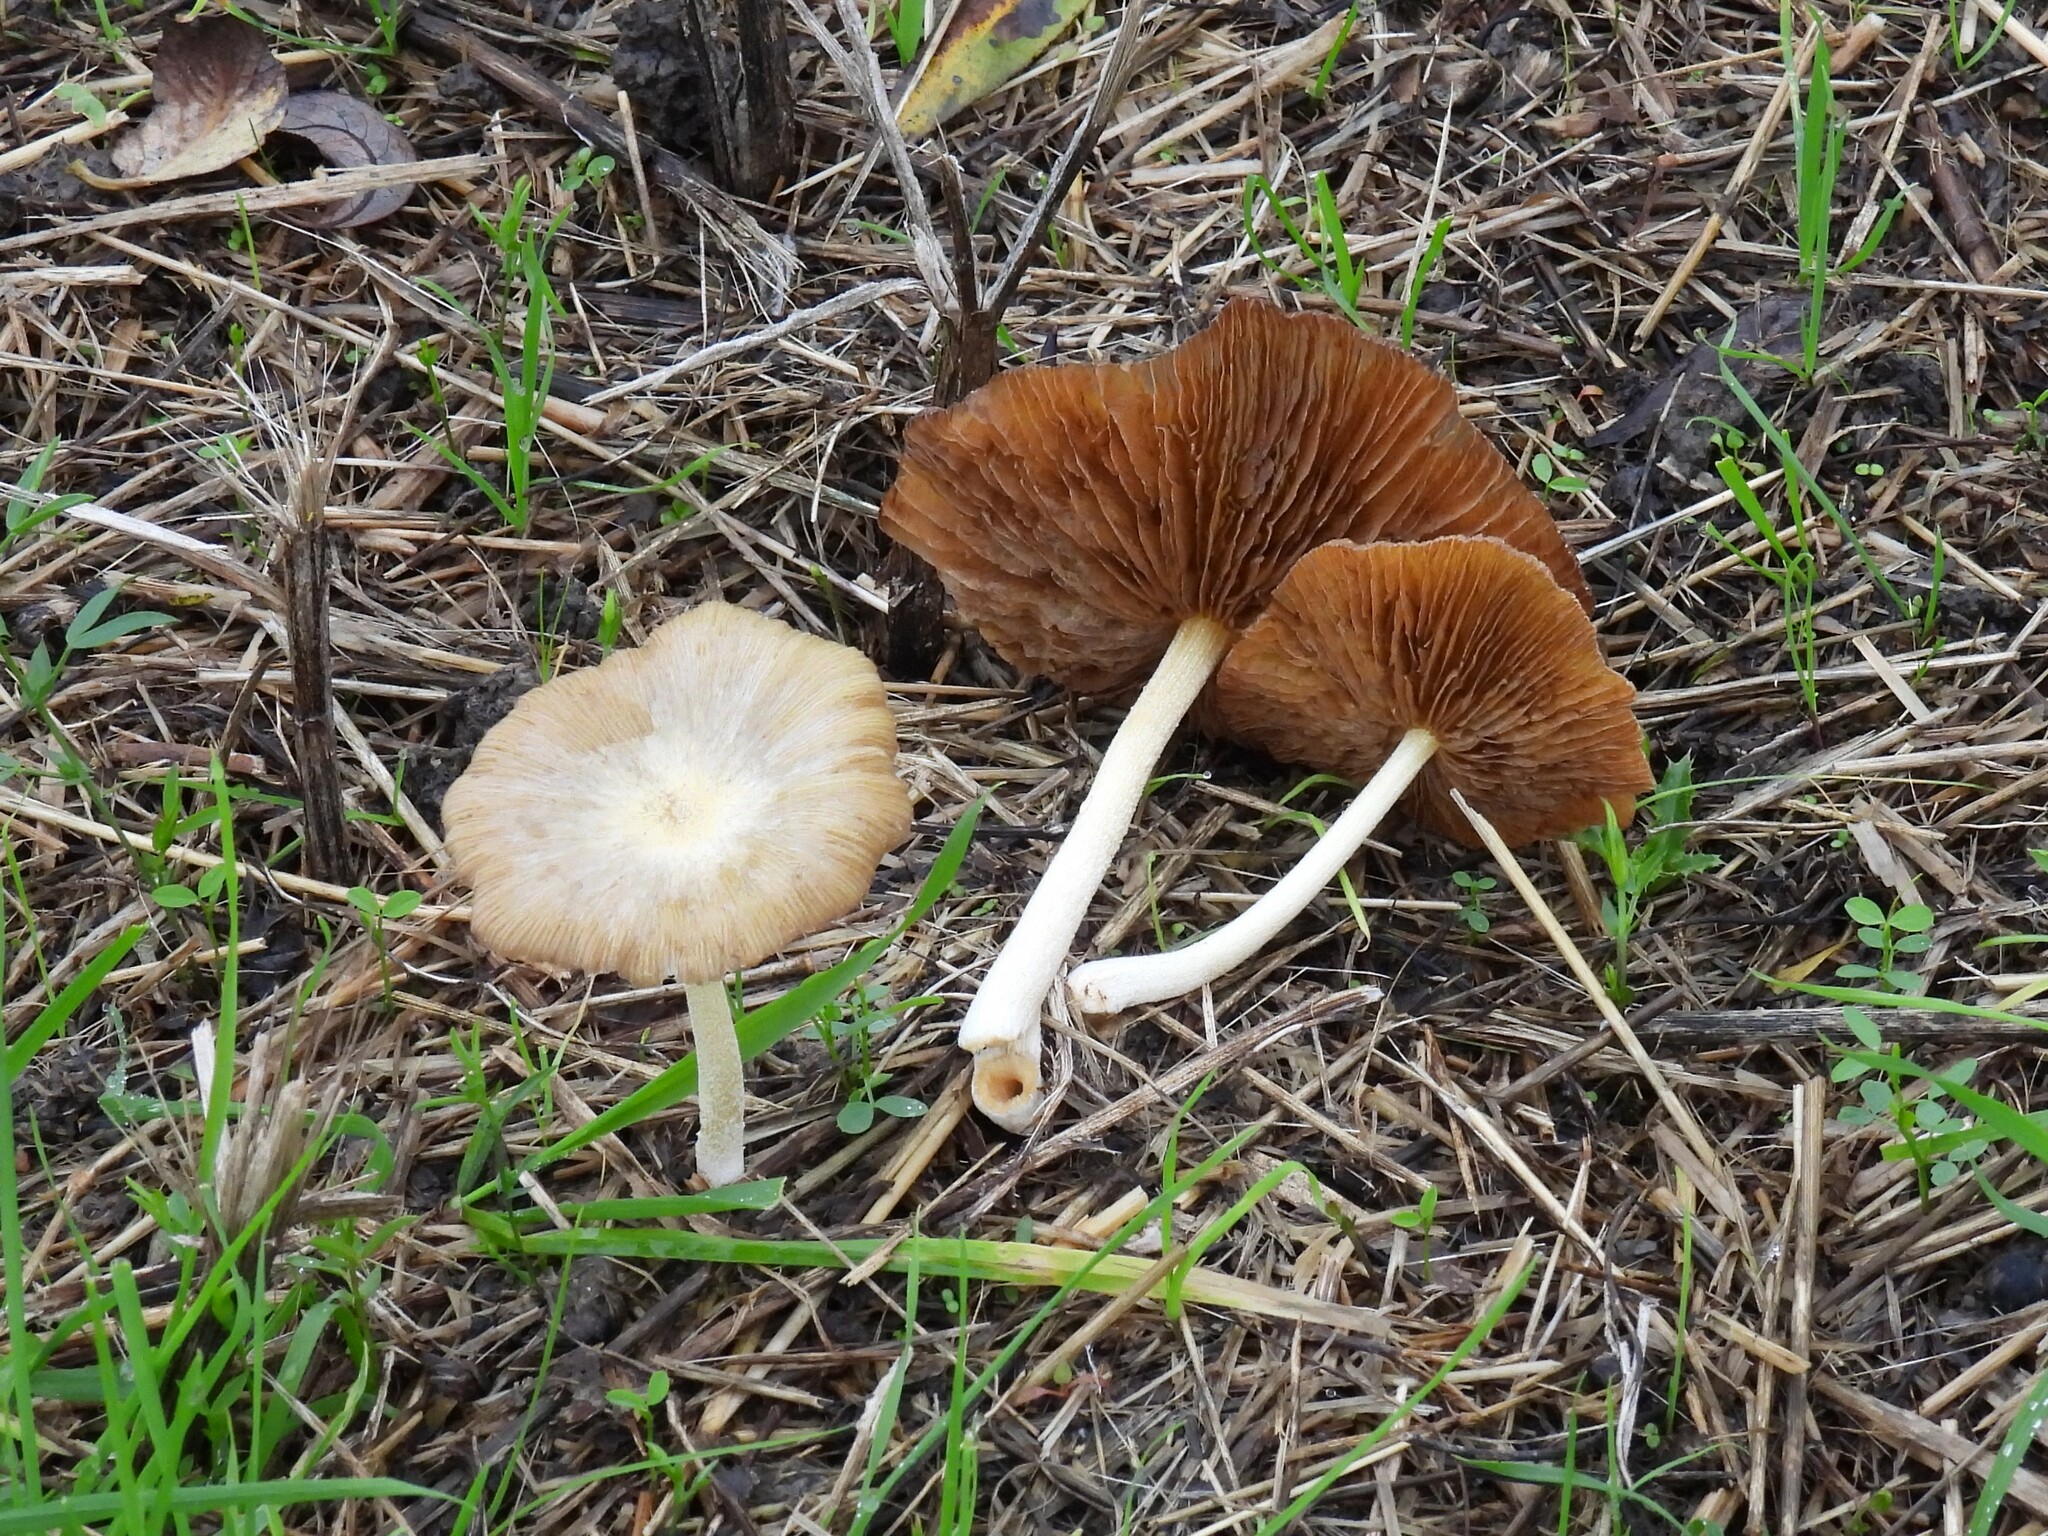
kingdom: Fungi
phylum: Basidiomycota
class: Agaricomycetes
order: Agaricales
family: Bolbitiaceae
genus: Bolbitius
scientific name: Bolbitius titubans
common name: Yellow fieldcap
